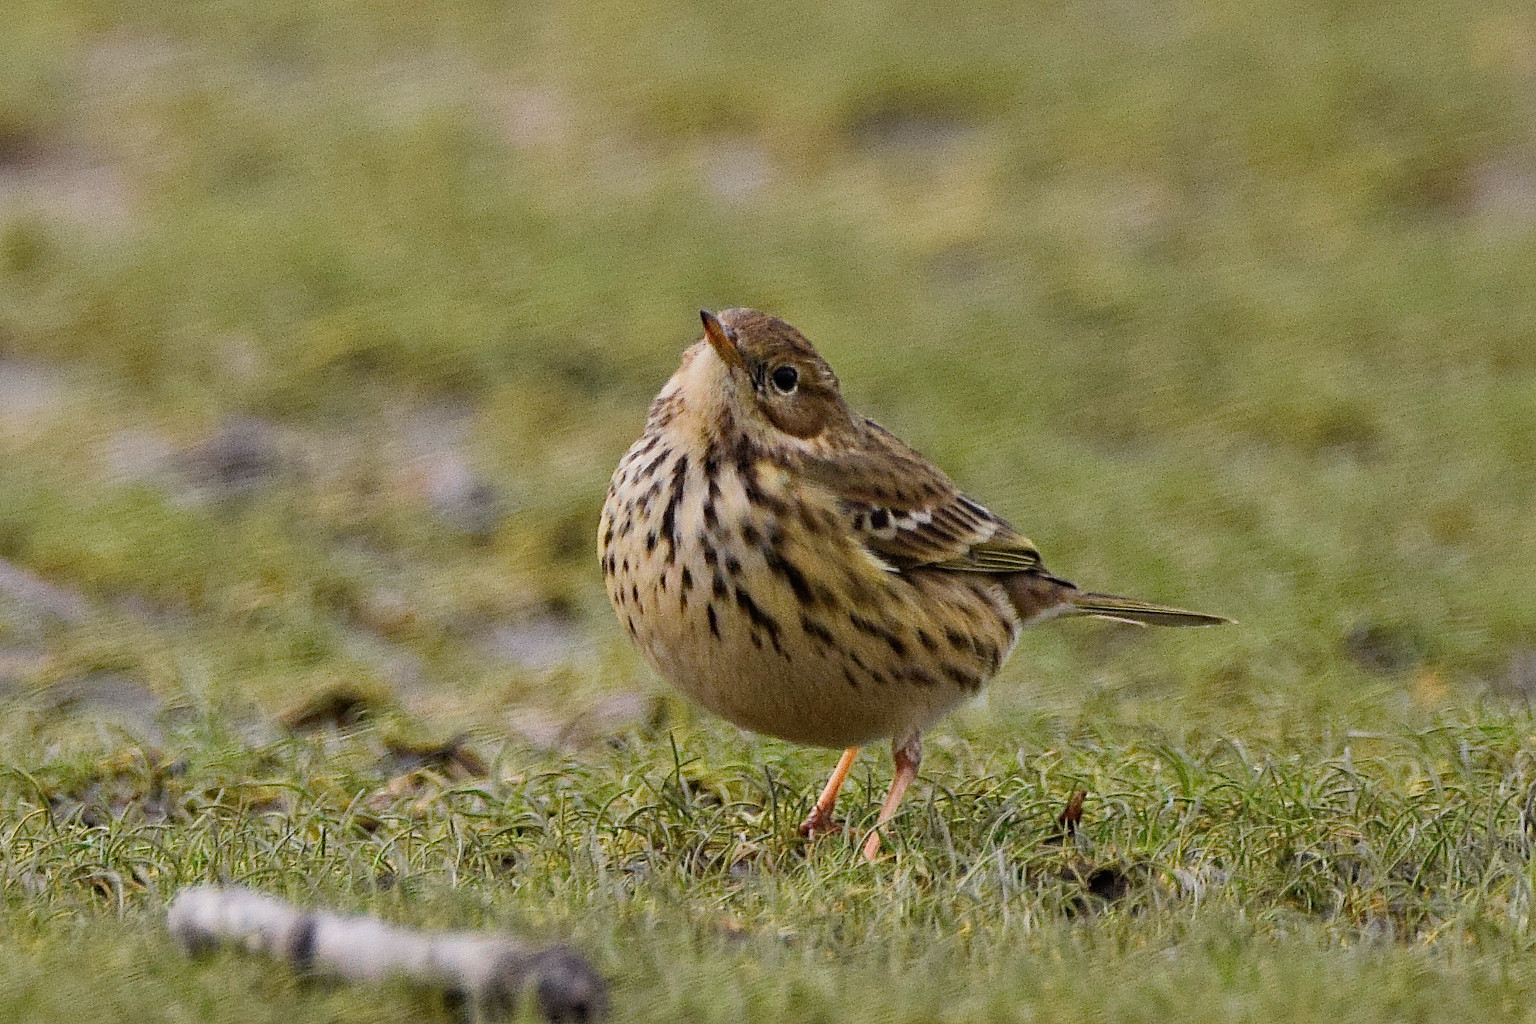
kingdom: Animalia
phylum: Chordata
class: Aves
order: Passeriformes
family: Motacillidae
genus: Anthus
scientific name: Anthus pratensis
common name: Meadow pipit
